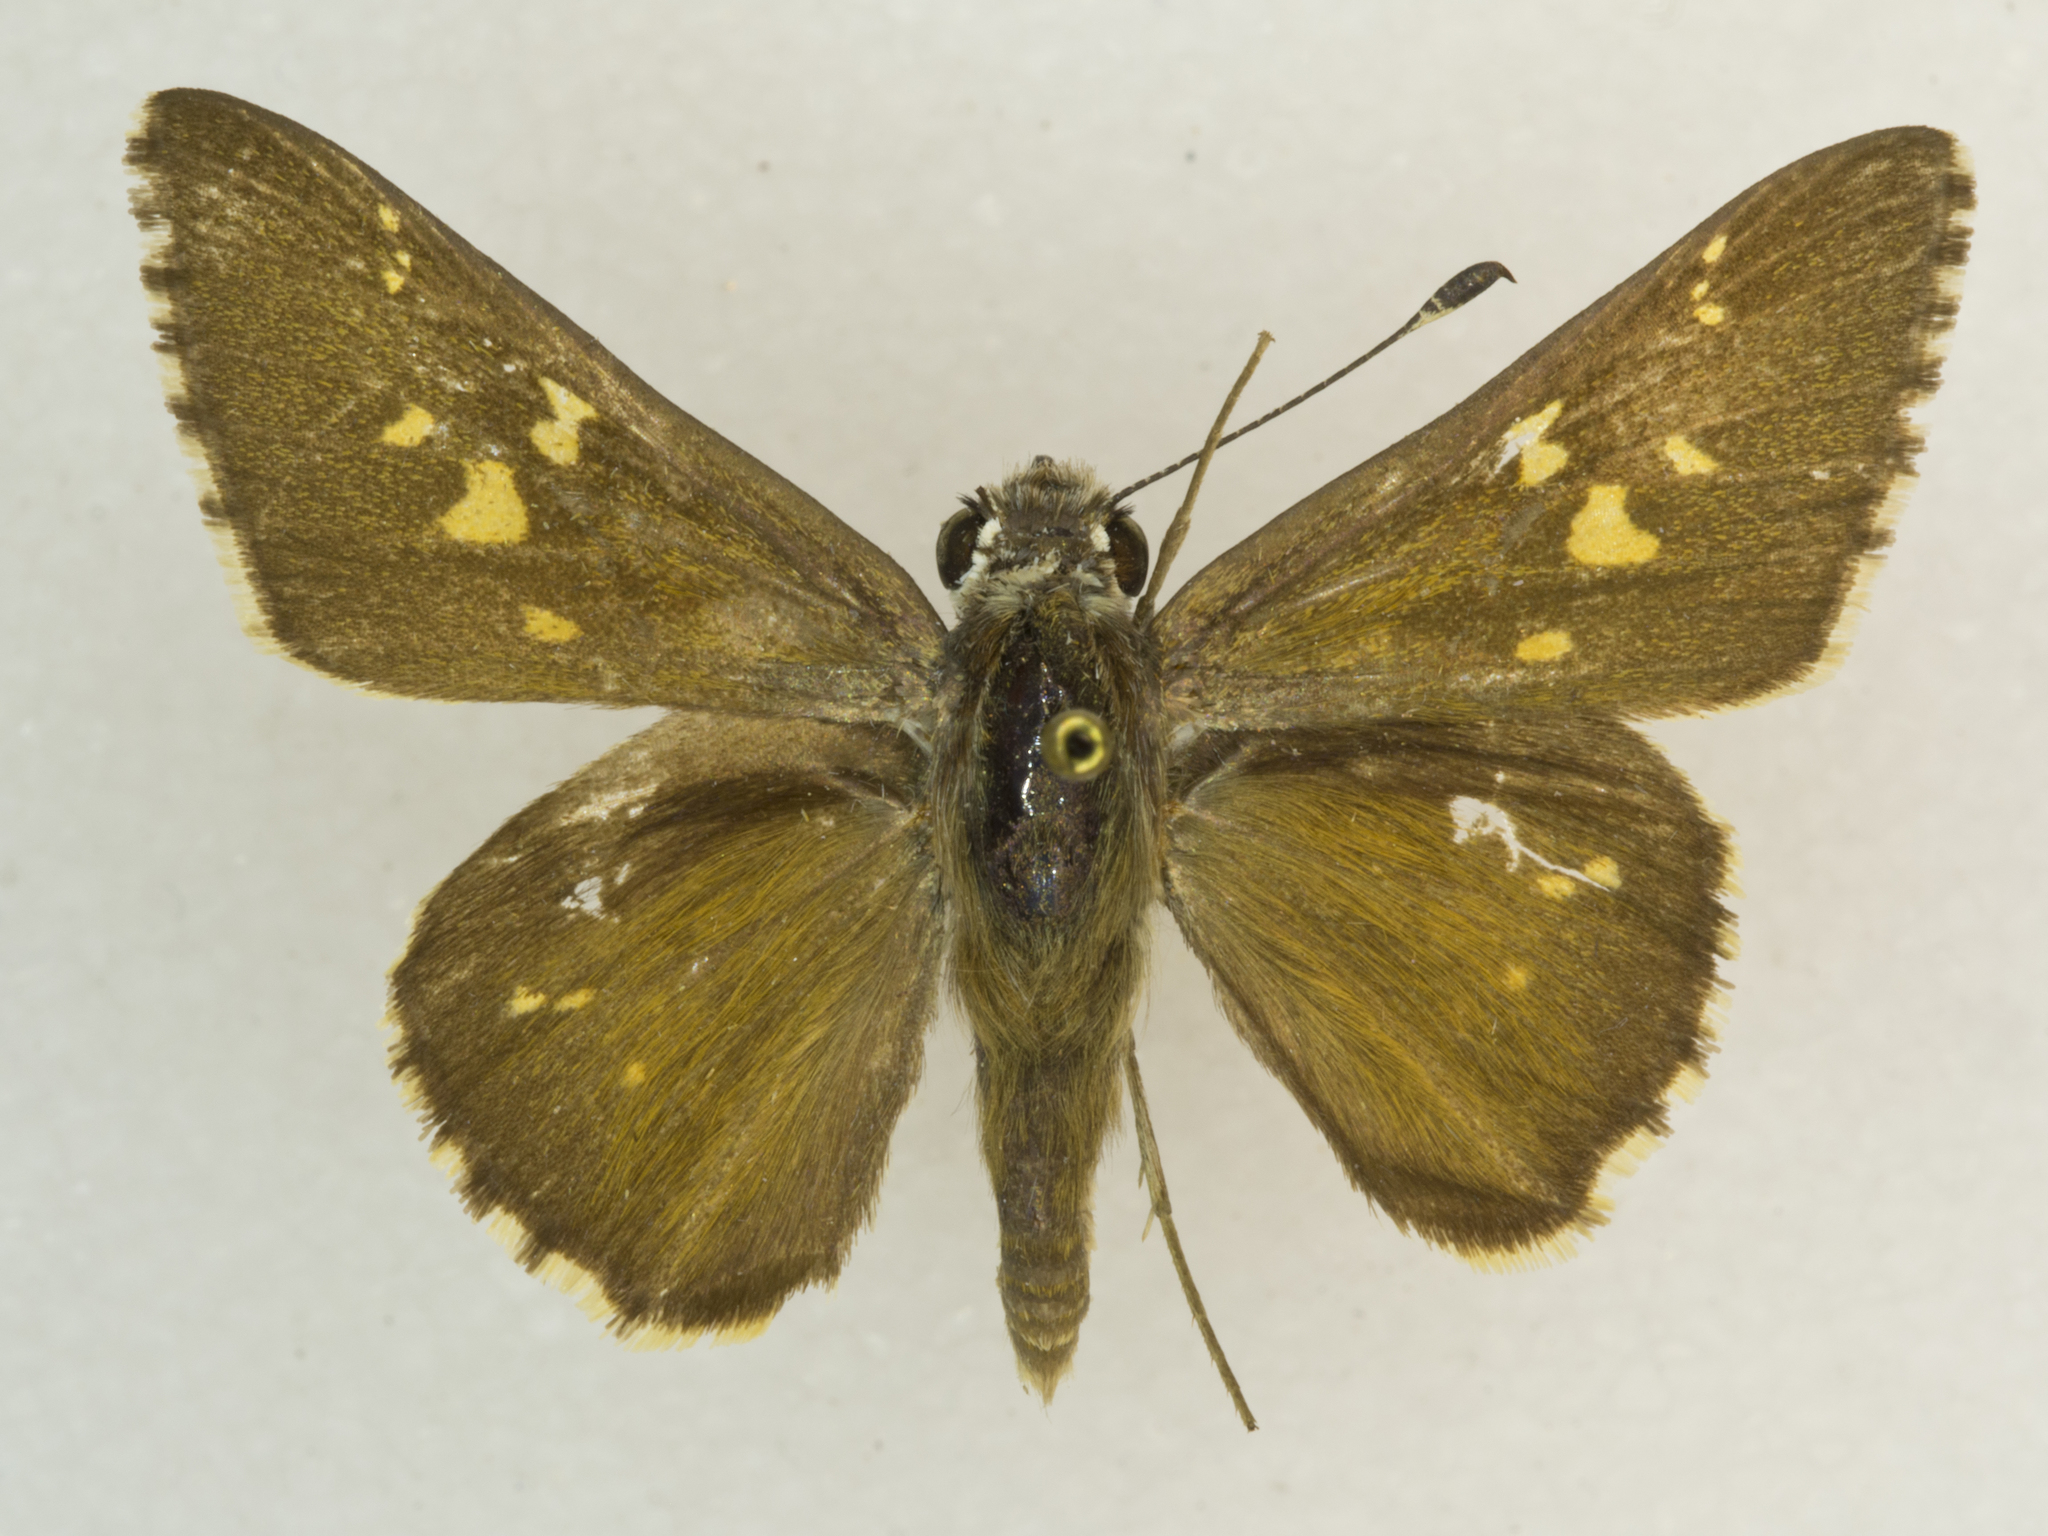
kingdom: Animalia
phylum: Arthropoda
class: Insecta
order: Lepidoptera
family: Hesperiidae
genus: Atrytonopsis
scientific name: Atrytonopsis python
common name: Python skipper
